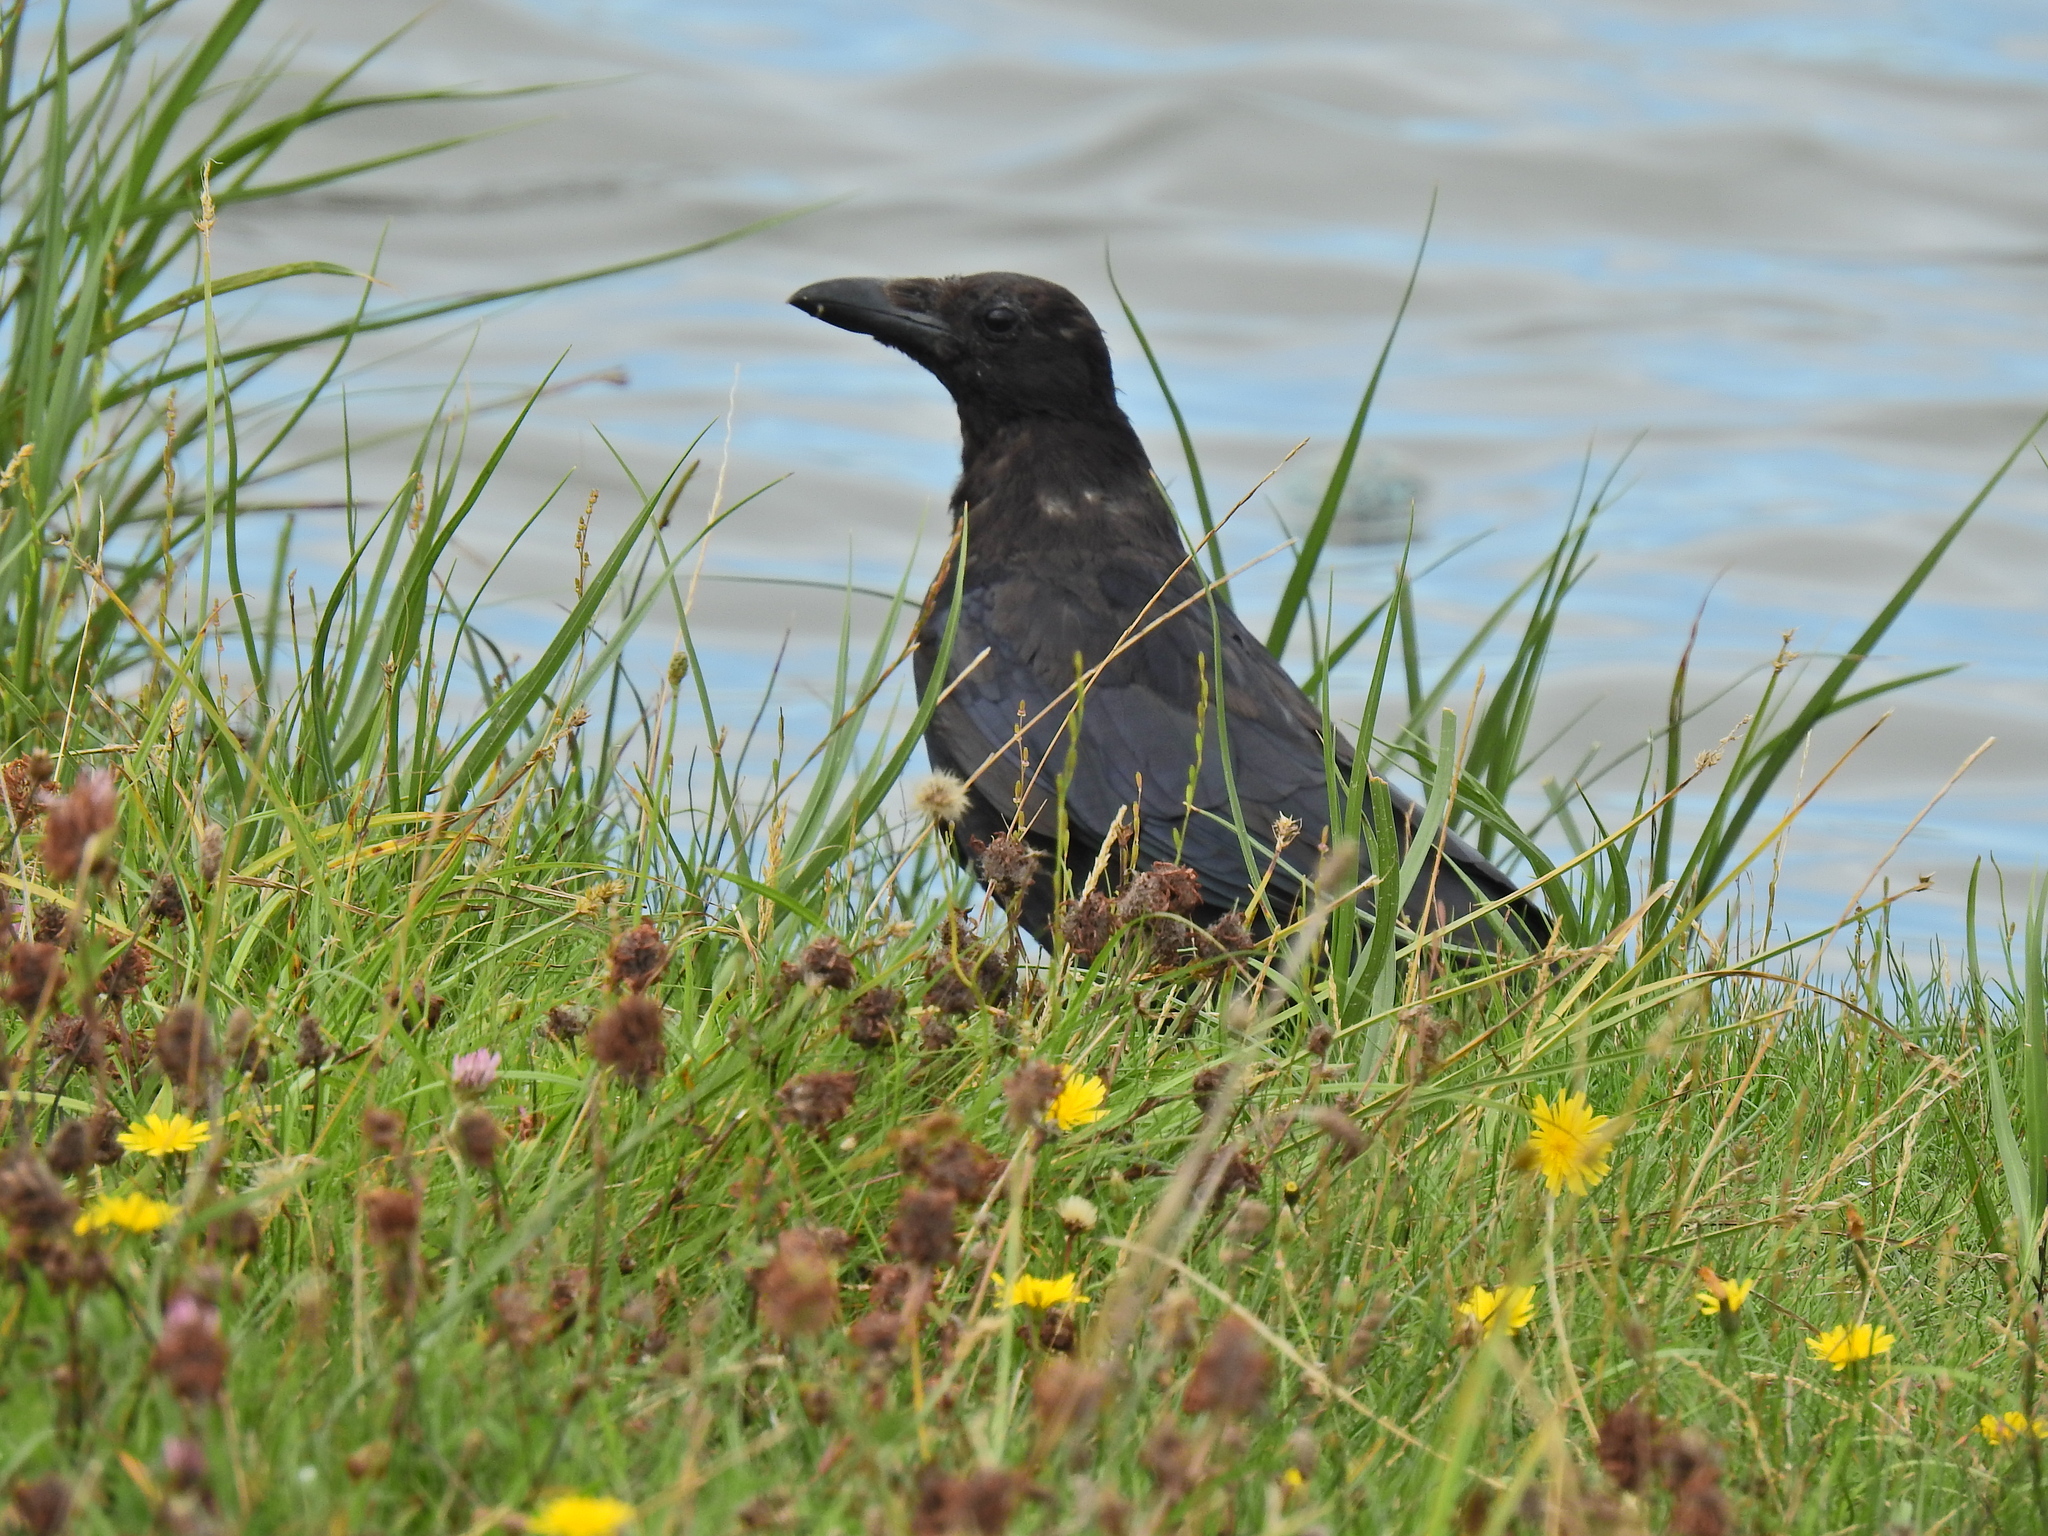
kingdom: Animalia
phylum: Chordata
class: Aves
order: Passeriformes
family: Corvidae
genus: Corvus
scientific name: Corvus corone
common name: Carrion crow
